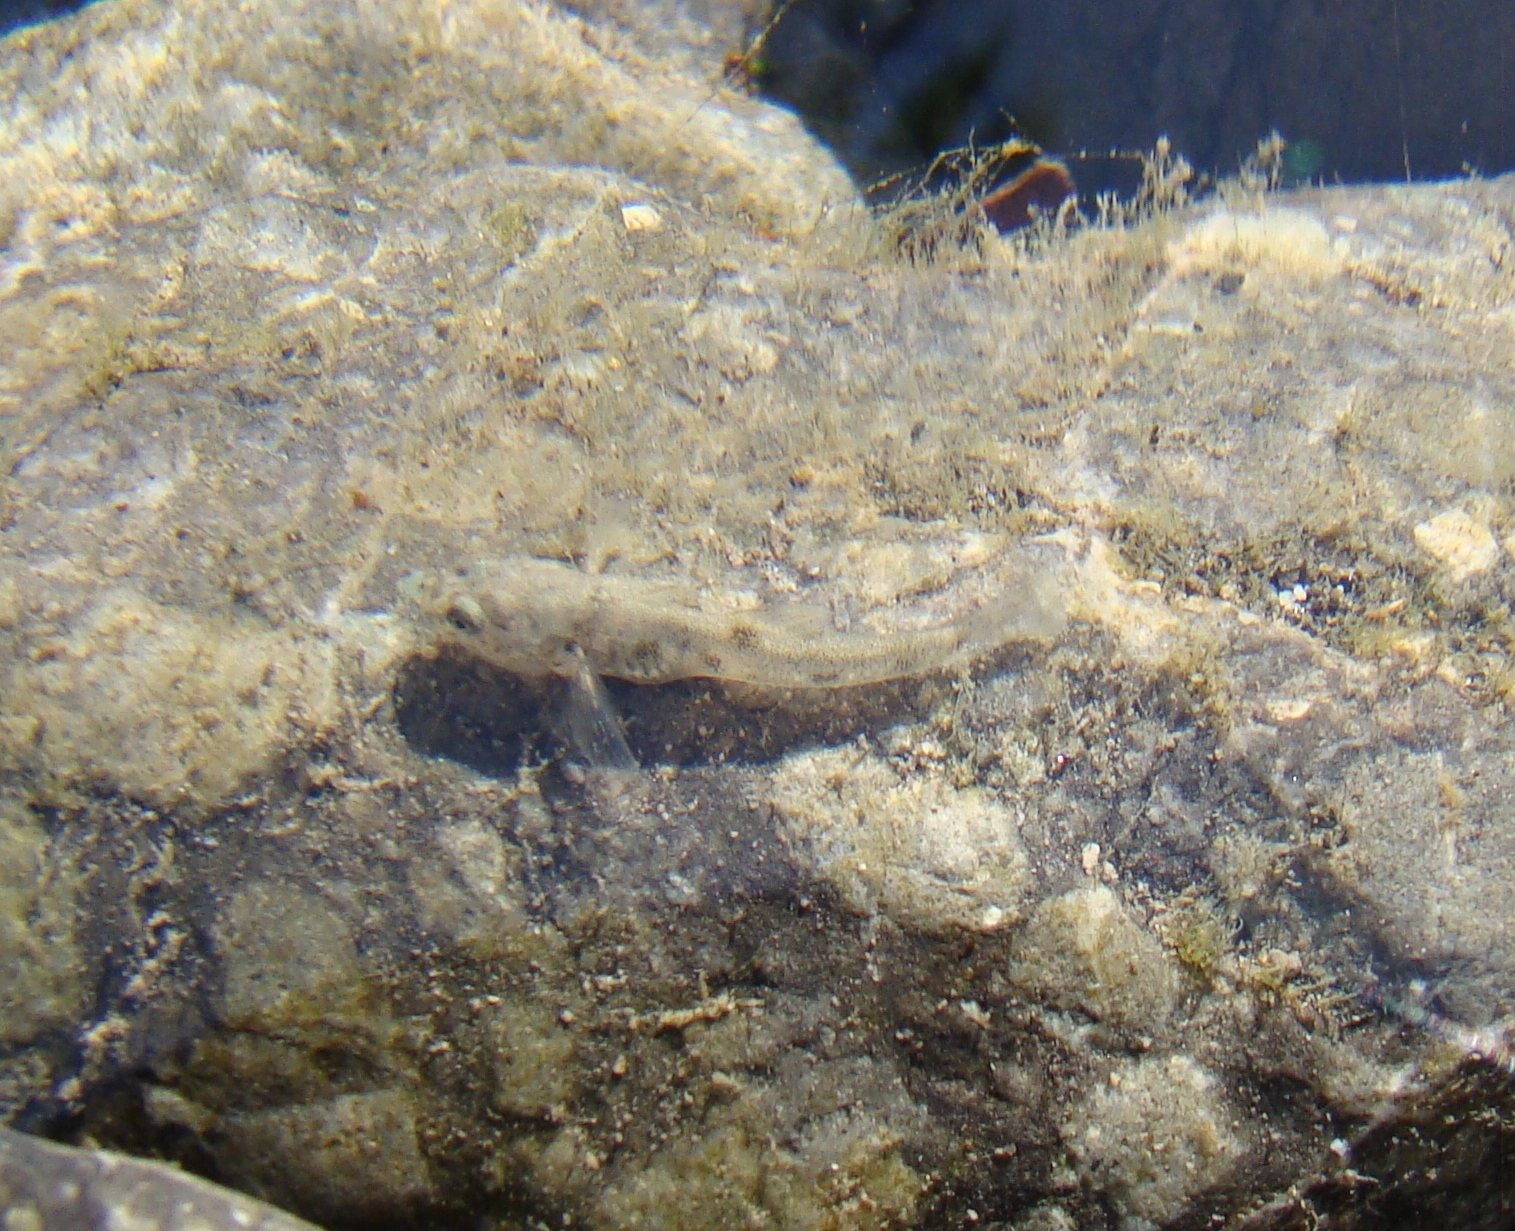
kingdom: Animalia
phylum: Chordata
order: Perciformes
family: Eleotridae
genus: Gobiomorphus
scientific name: Gobiomorphus
